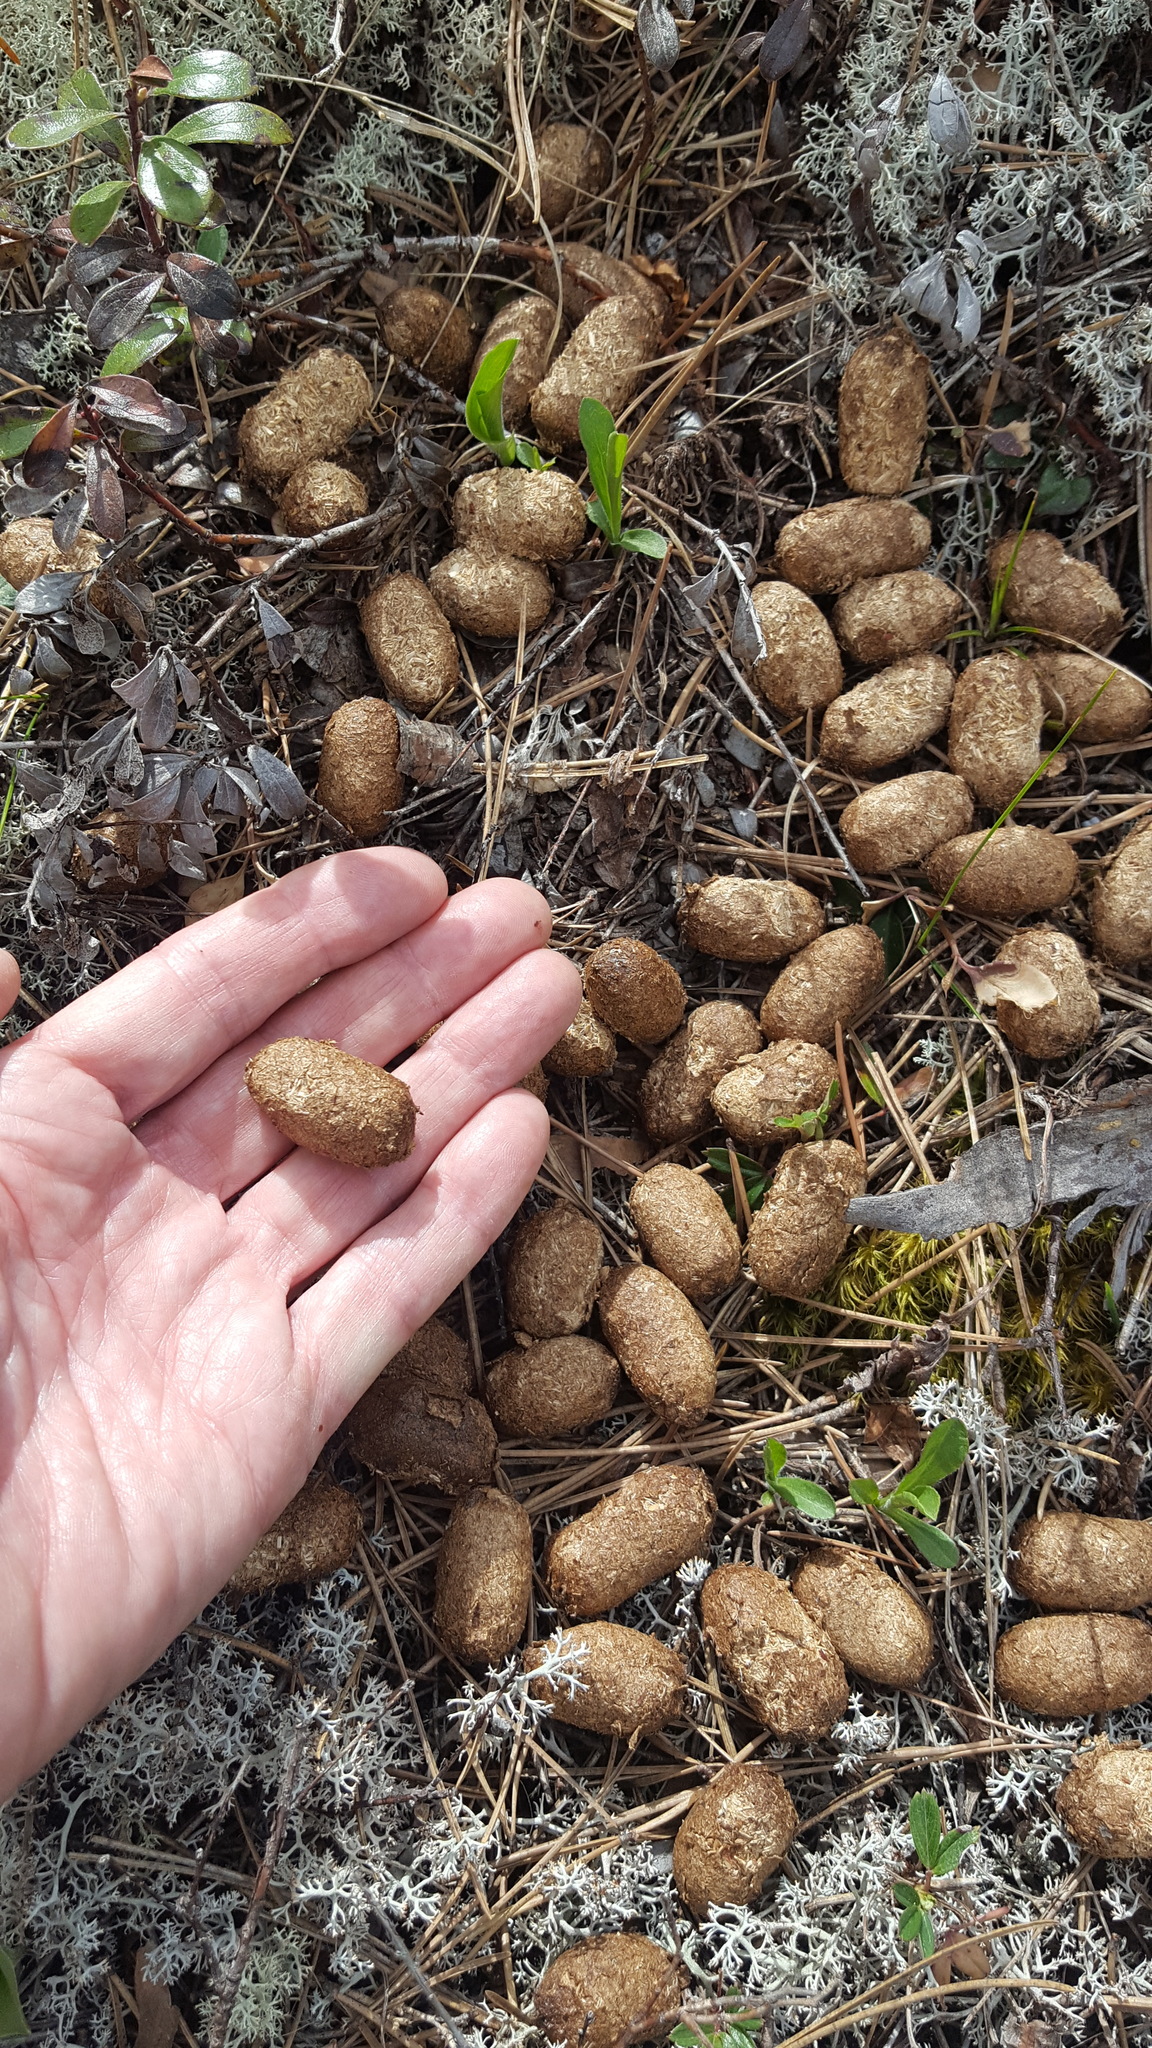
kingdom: Animalia
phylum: Chordata
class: Mammalia
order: Artiodactyla
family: Cervidae
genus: Alces
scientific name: Alces alces
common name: Moose
